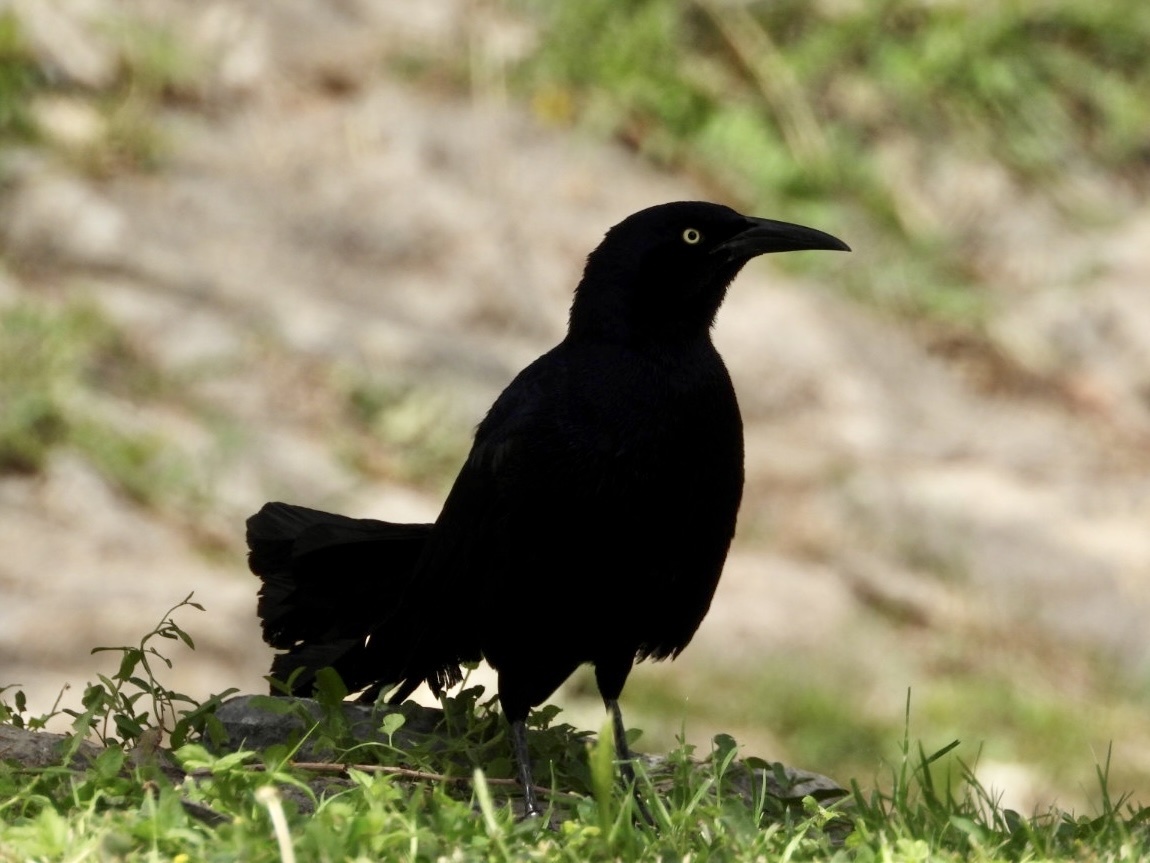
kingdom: Animalia
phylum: Chordata
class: Aves
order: Passeriformes
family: Icteridae
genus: Quiscalus
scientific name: Quiscalus mexicanus
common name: Great-tailed grackle
